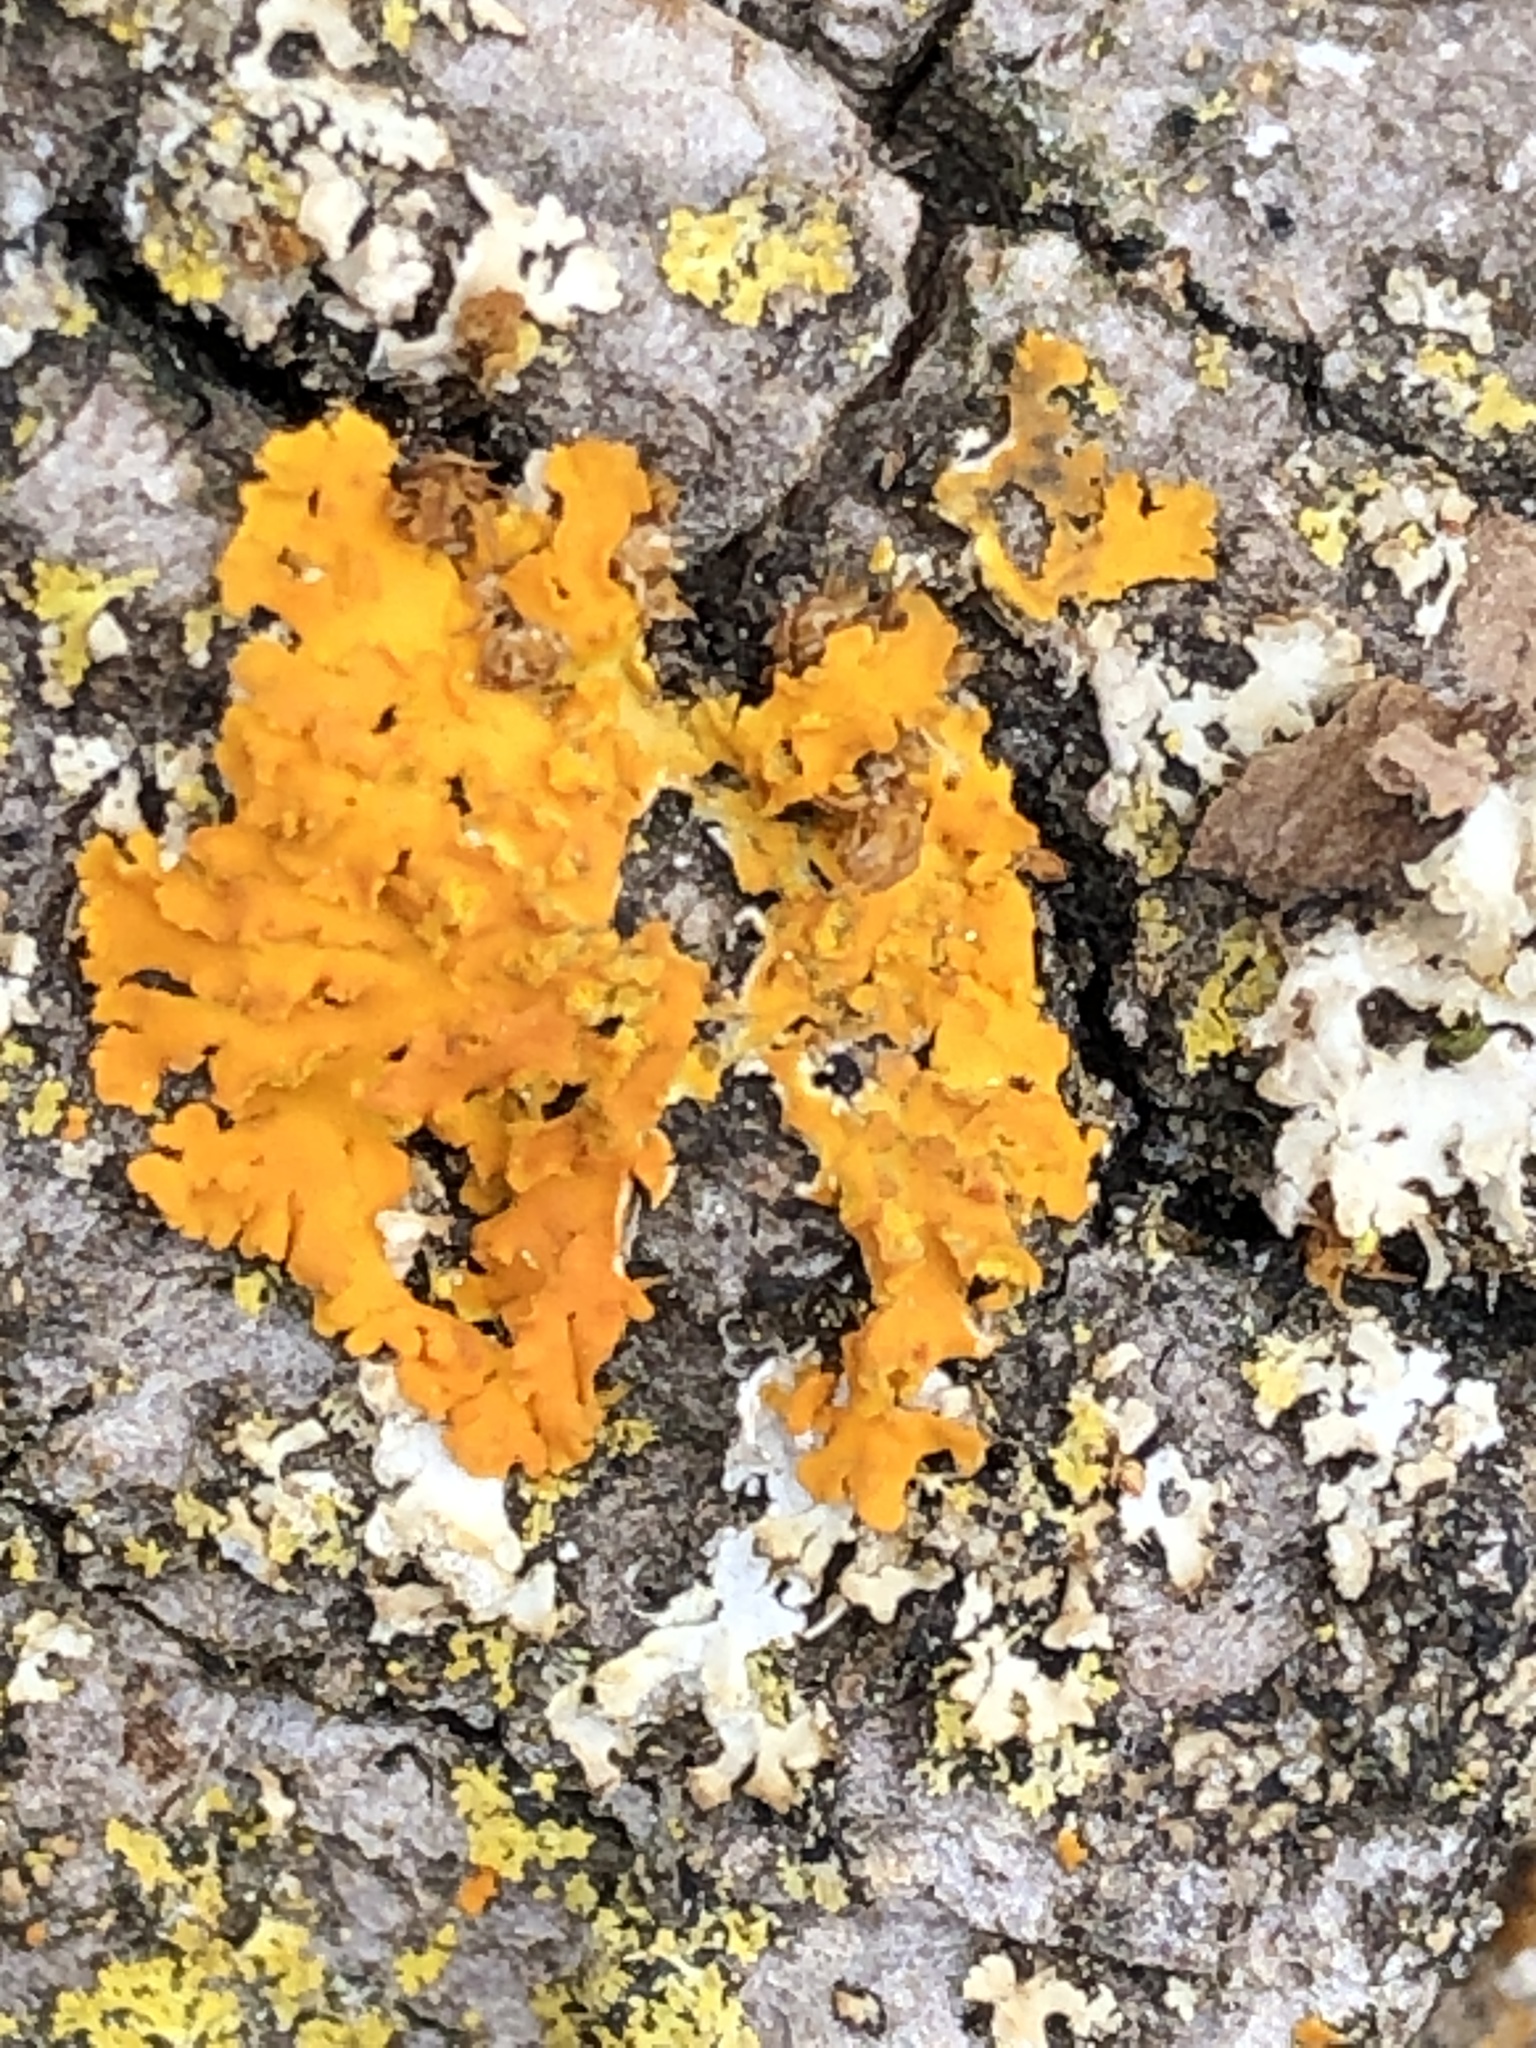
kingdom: Fungi
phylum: Ascomycota
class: Lecanoromycetes
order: Teloschistales
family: Teloschistaceae
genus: Oxneria
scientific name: Oxneria fallax
